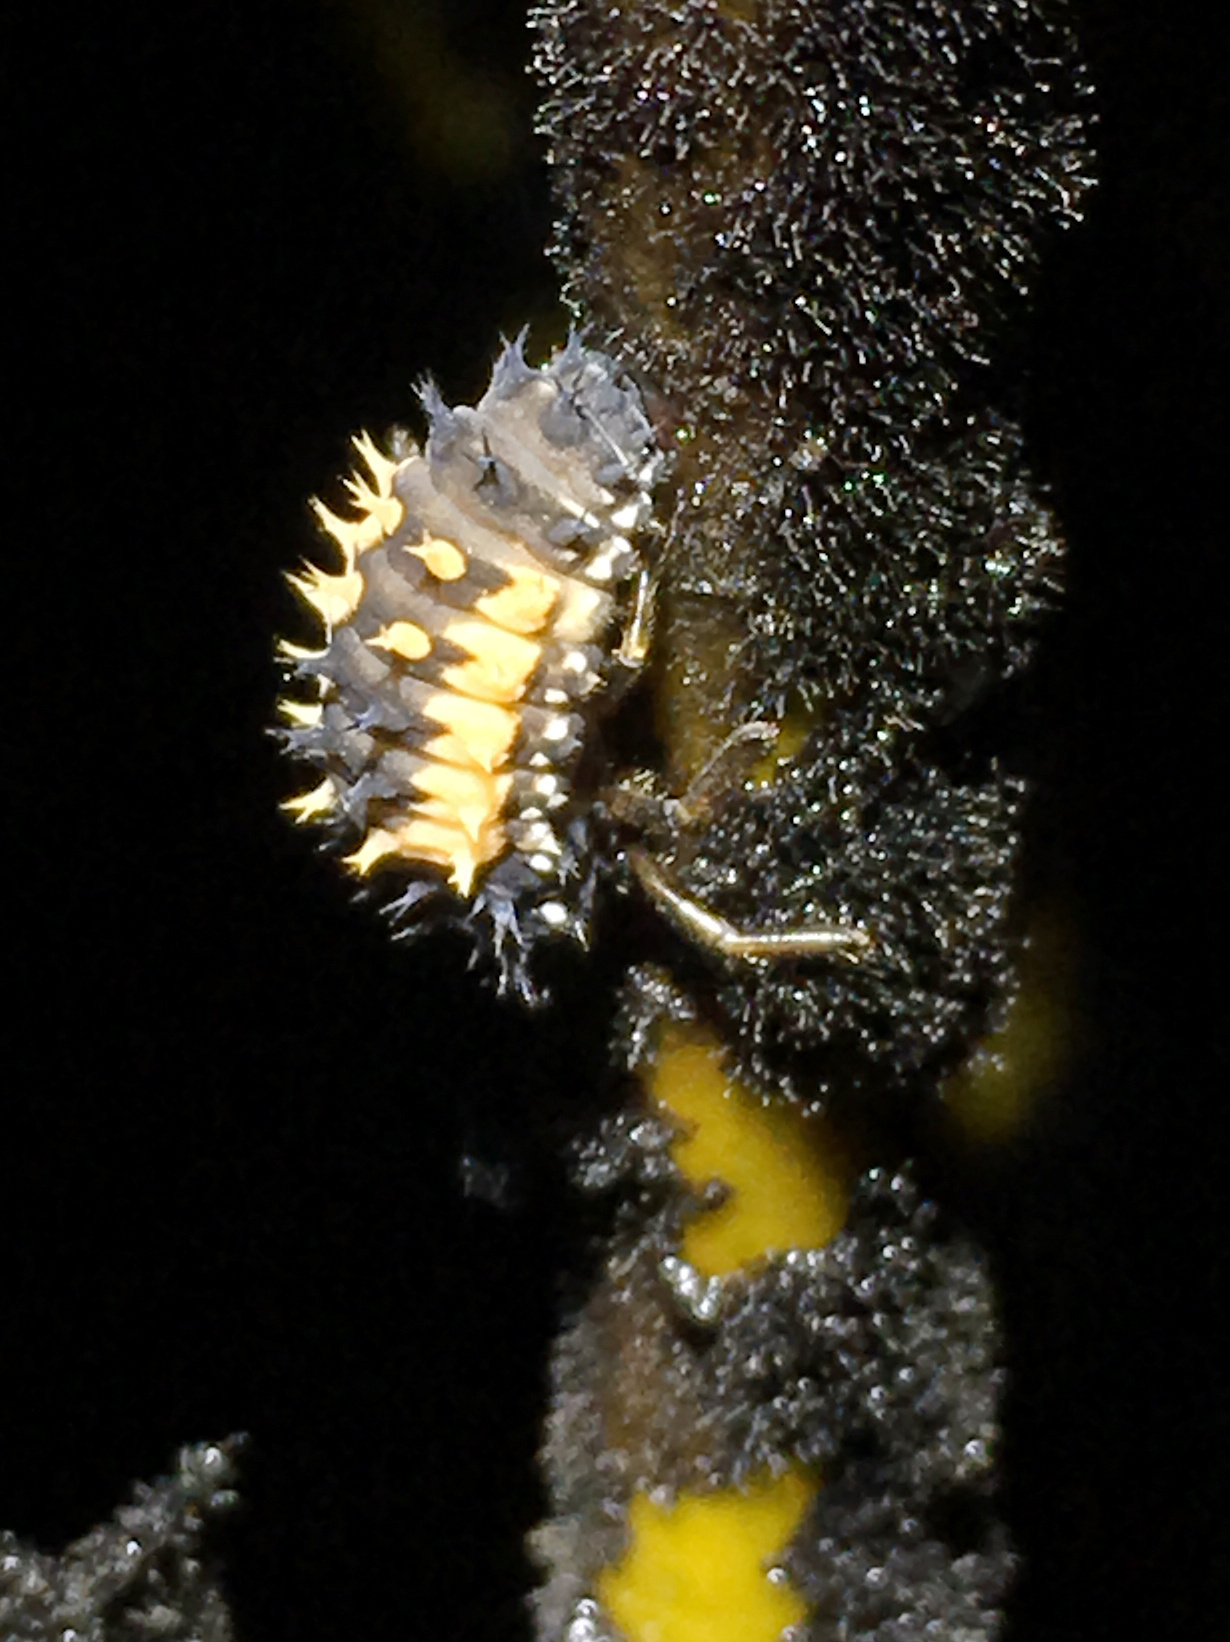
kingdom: Animalia
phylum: Arthropoda
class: Insecta
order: Coleoptera
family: Coccinellidae
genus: Harmonia
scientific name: Harmonia axyridis
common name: Harlequin ladybird
